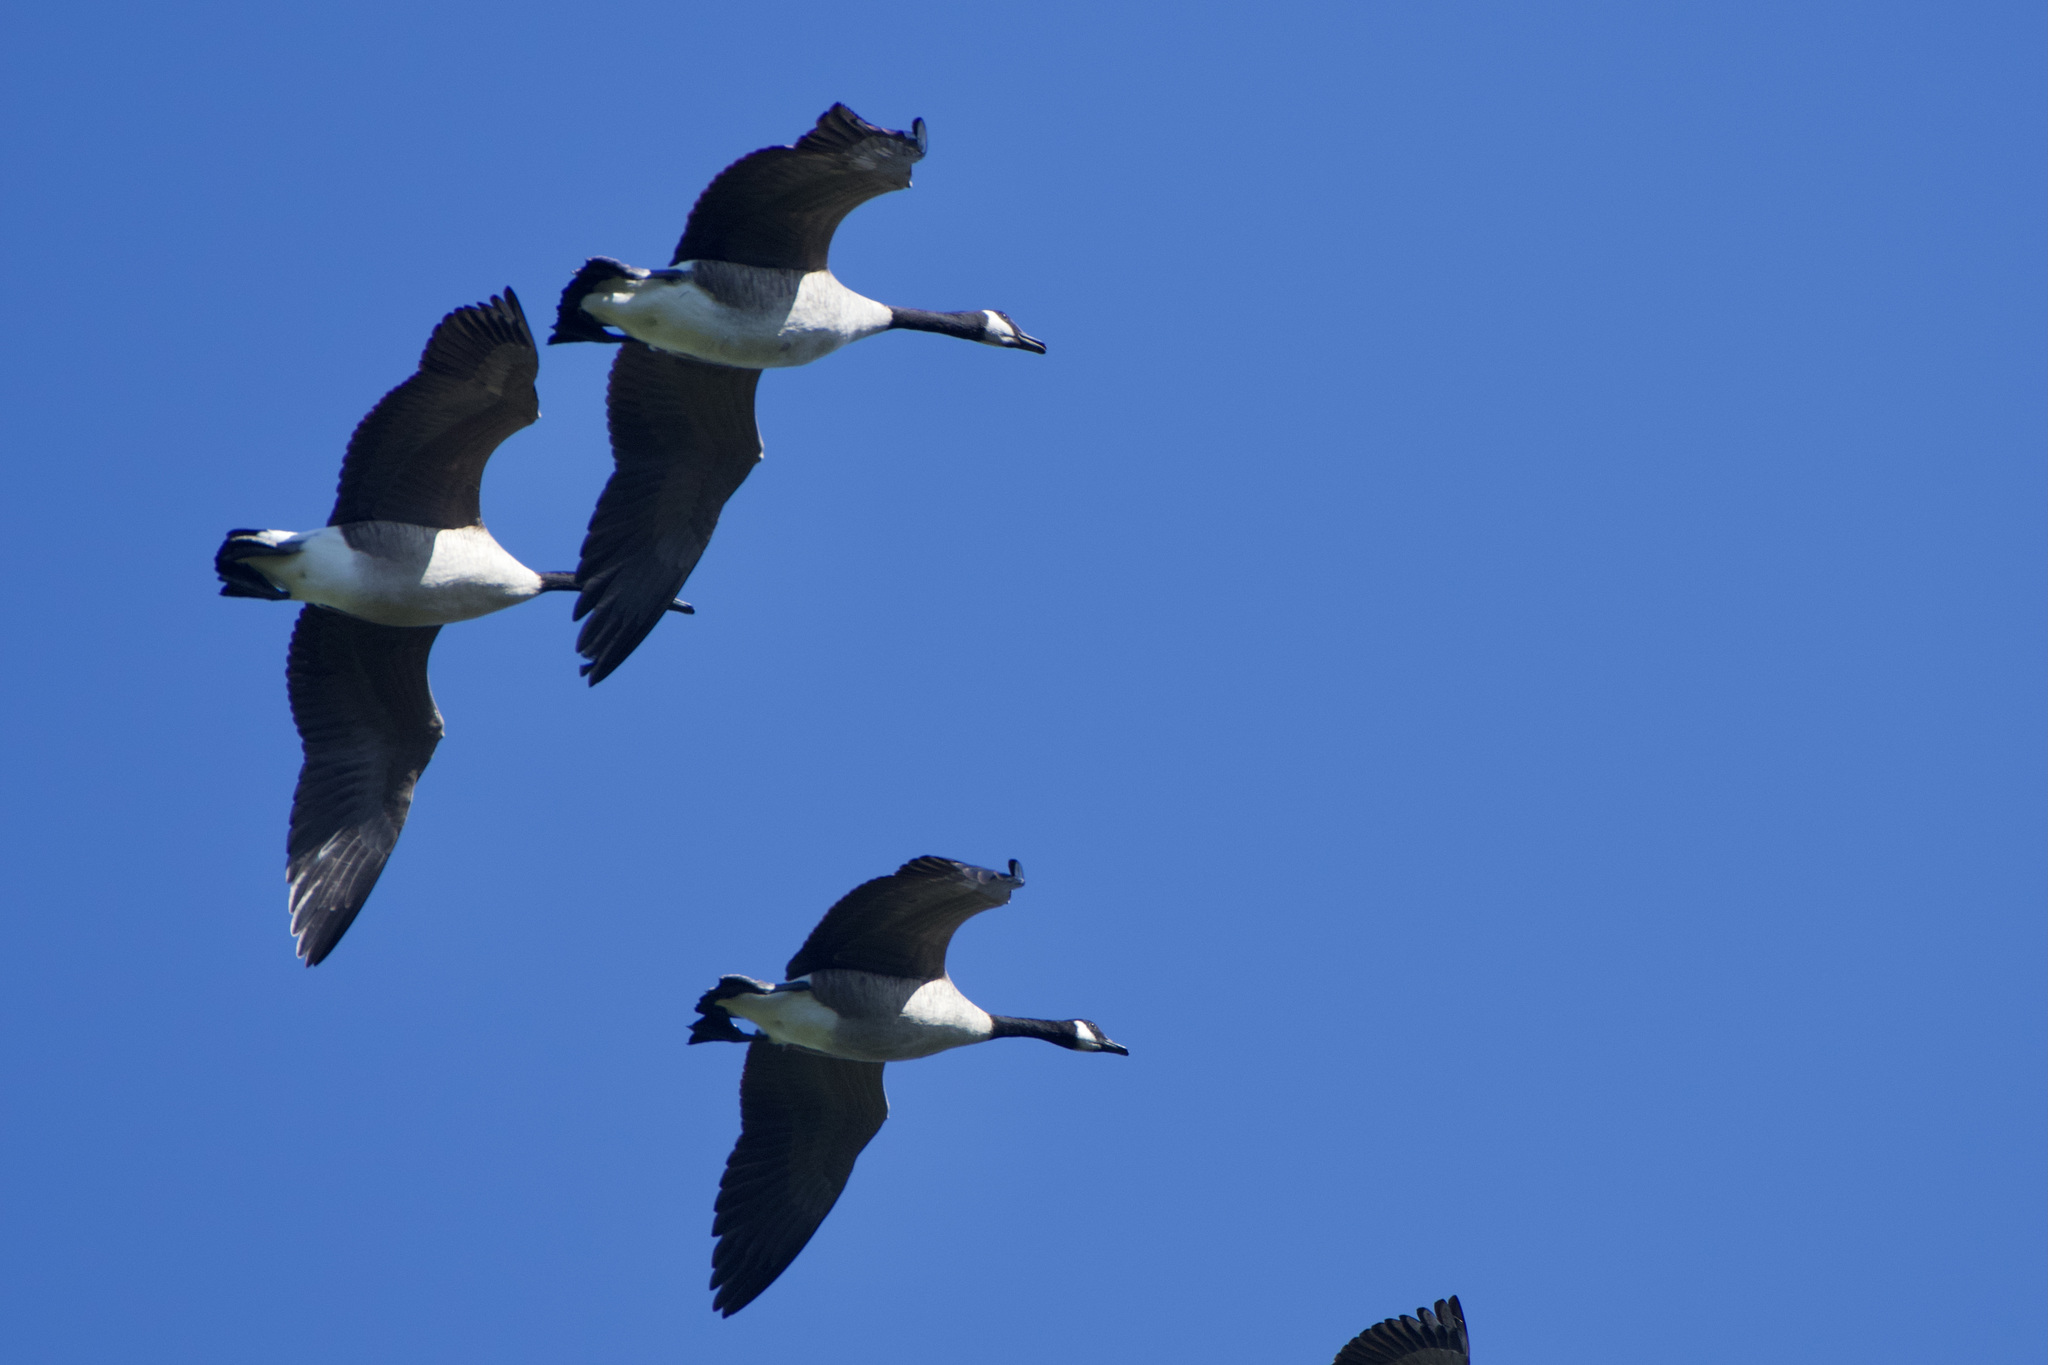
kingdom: Animalia
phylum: Chordata
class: Aves
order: Anseriformes
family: Anatidae
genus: Branta
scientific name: Branta canadensis
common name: Canada goose
